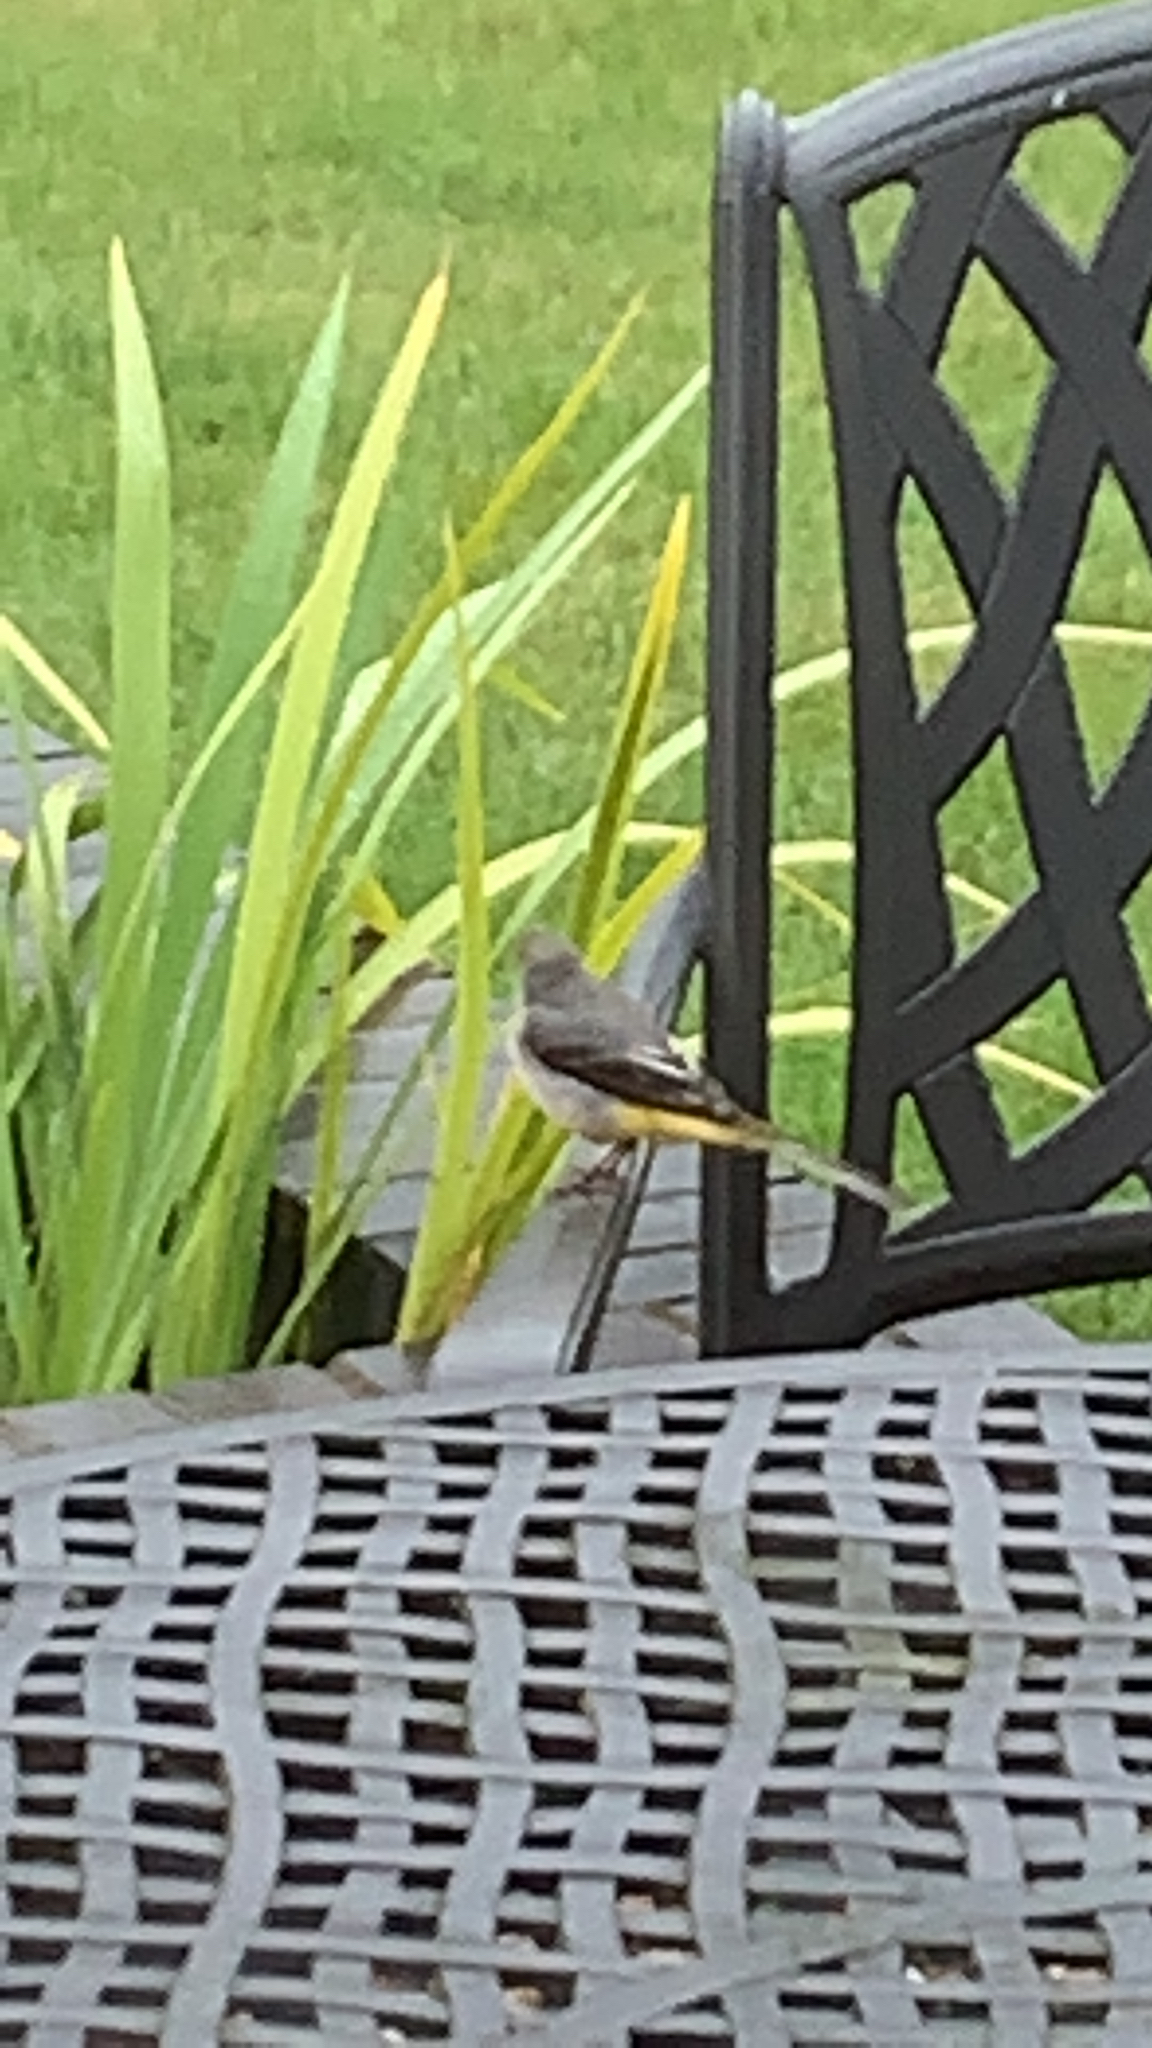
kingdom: Animalia
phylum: Chordata
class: Aves
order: Passeriformes
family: Motacillidae
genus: Motacilla
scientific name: Motacilla cinerea
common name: Grey wagtail
